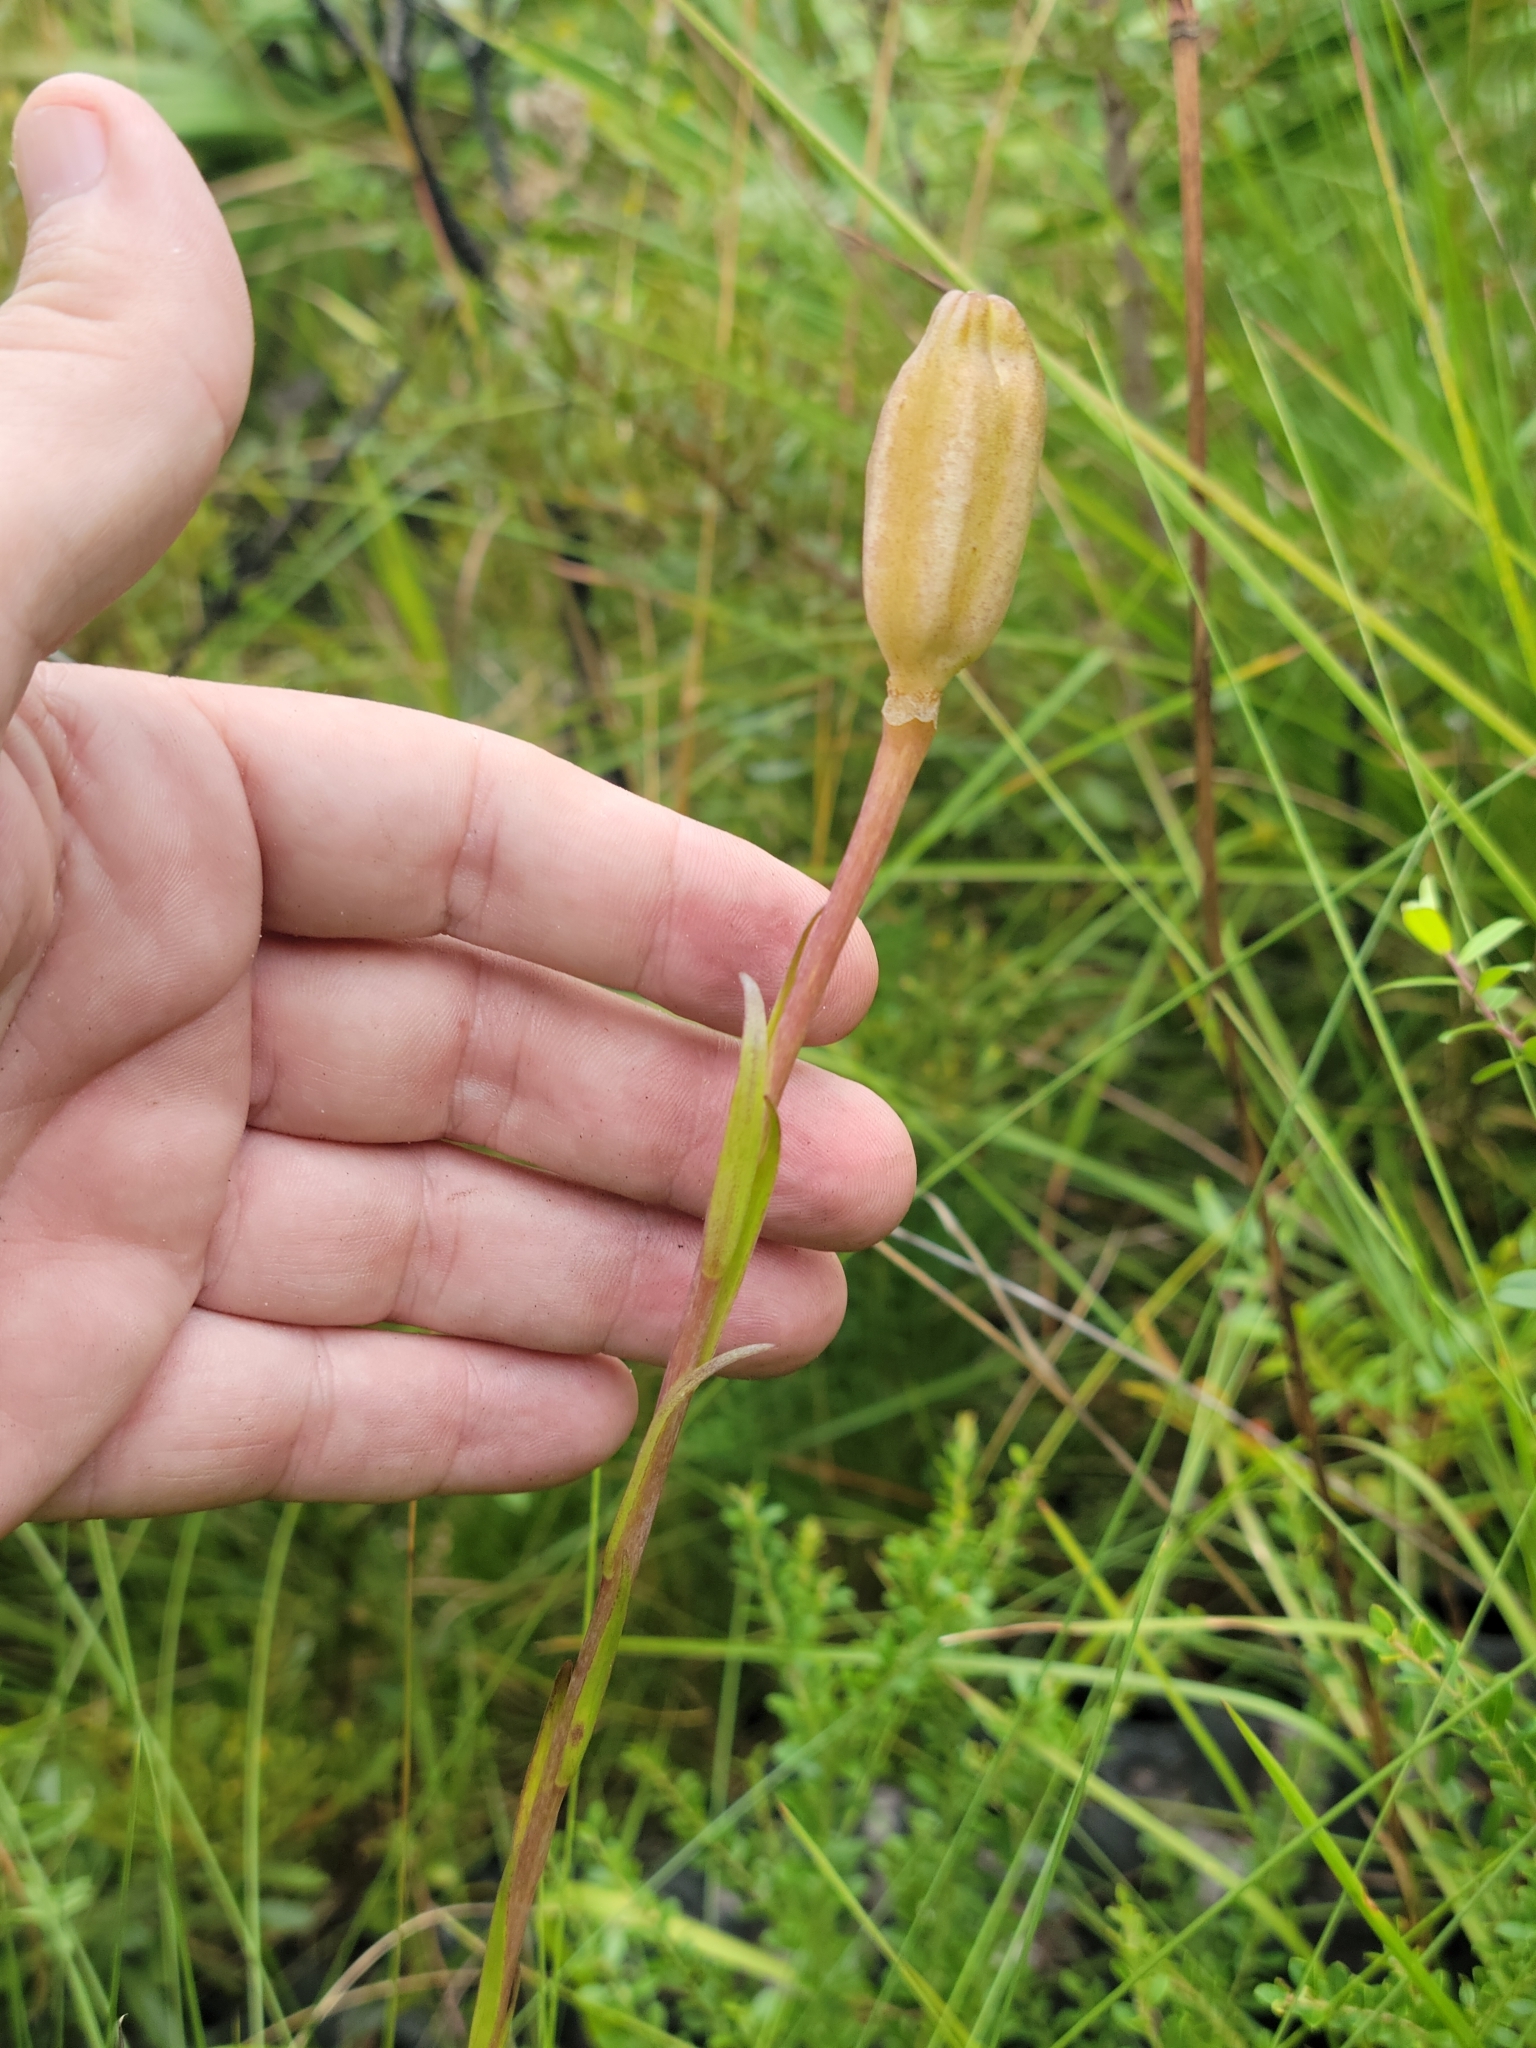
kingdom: Plantae
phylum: Tracheophyta
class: Liliopsida
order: Liliales
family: Liliaceae
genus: Lilium
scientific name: Lilium catesbaei
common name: Catesby's lily
